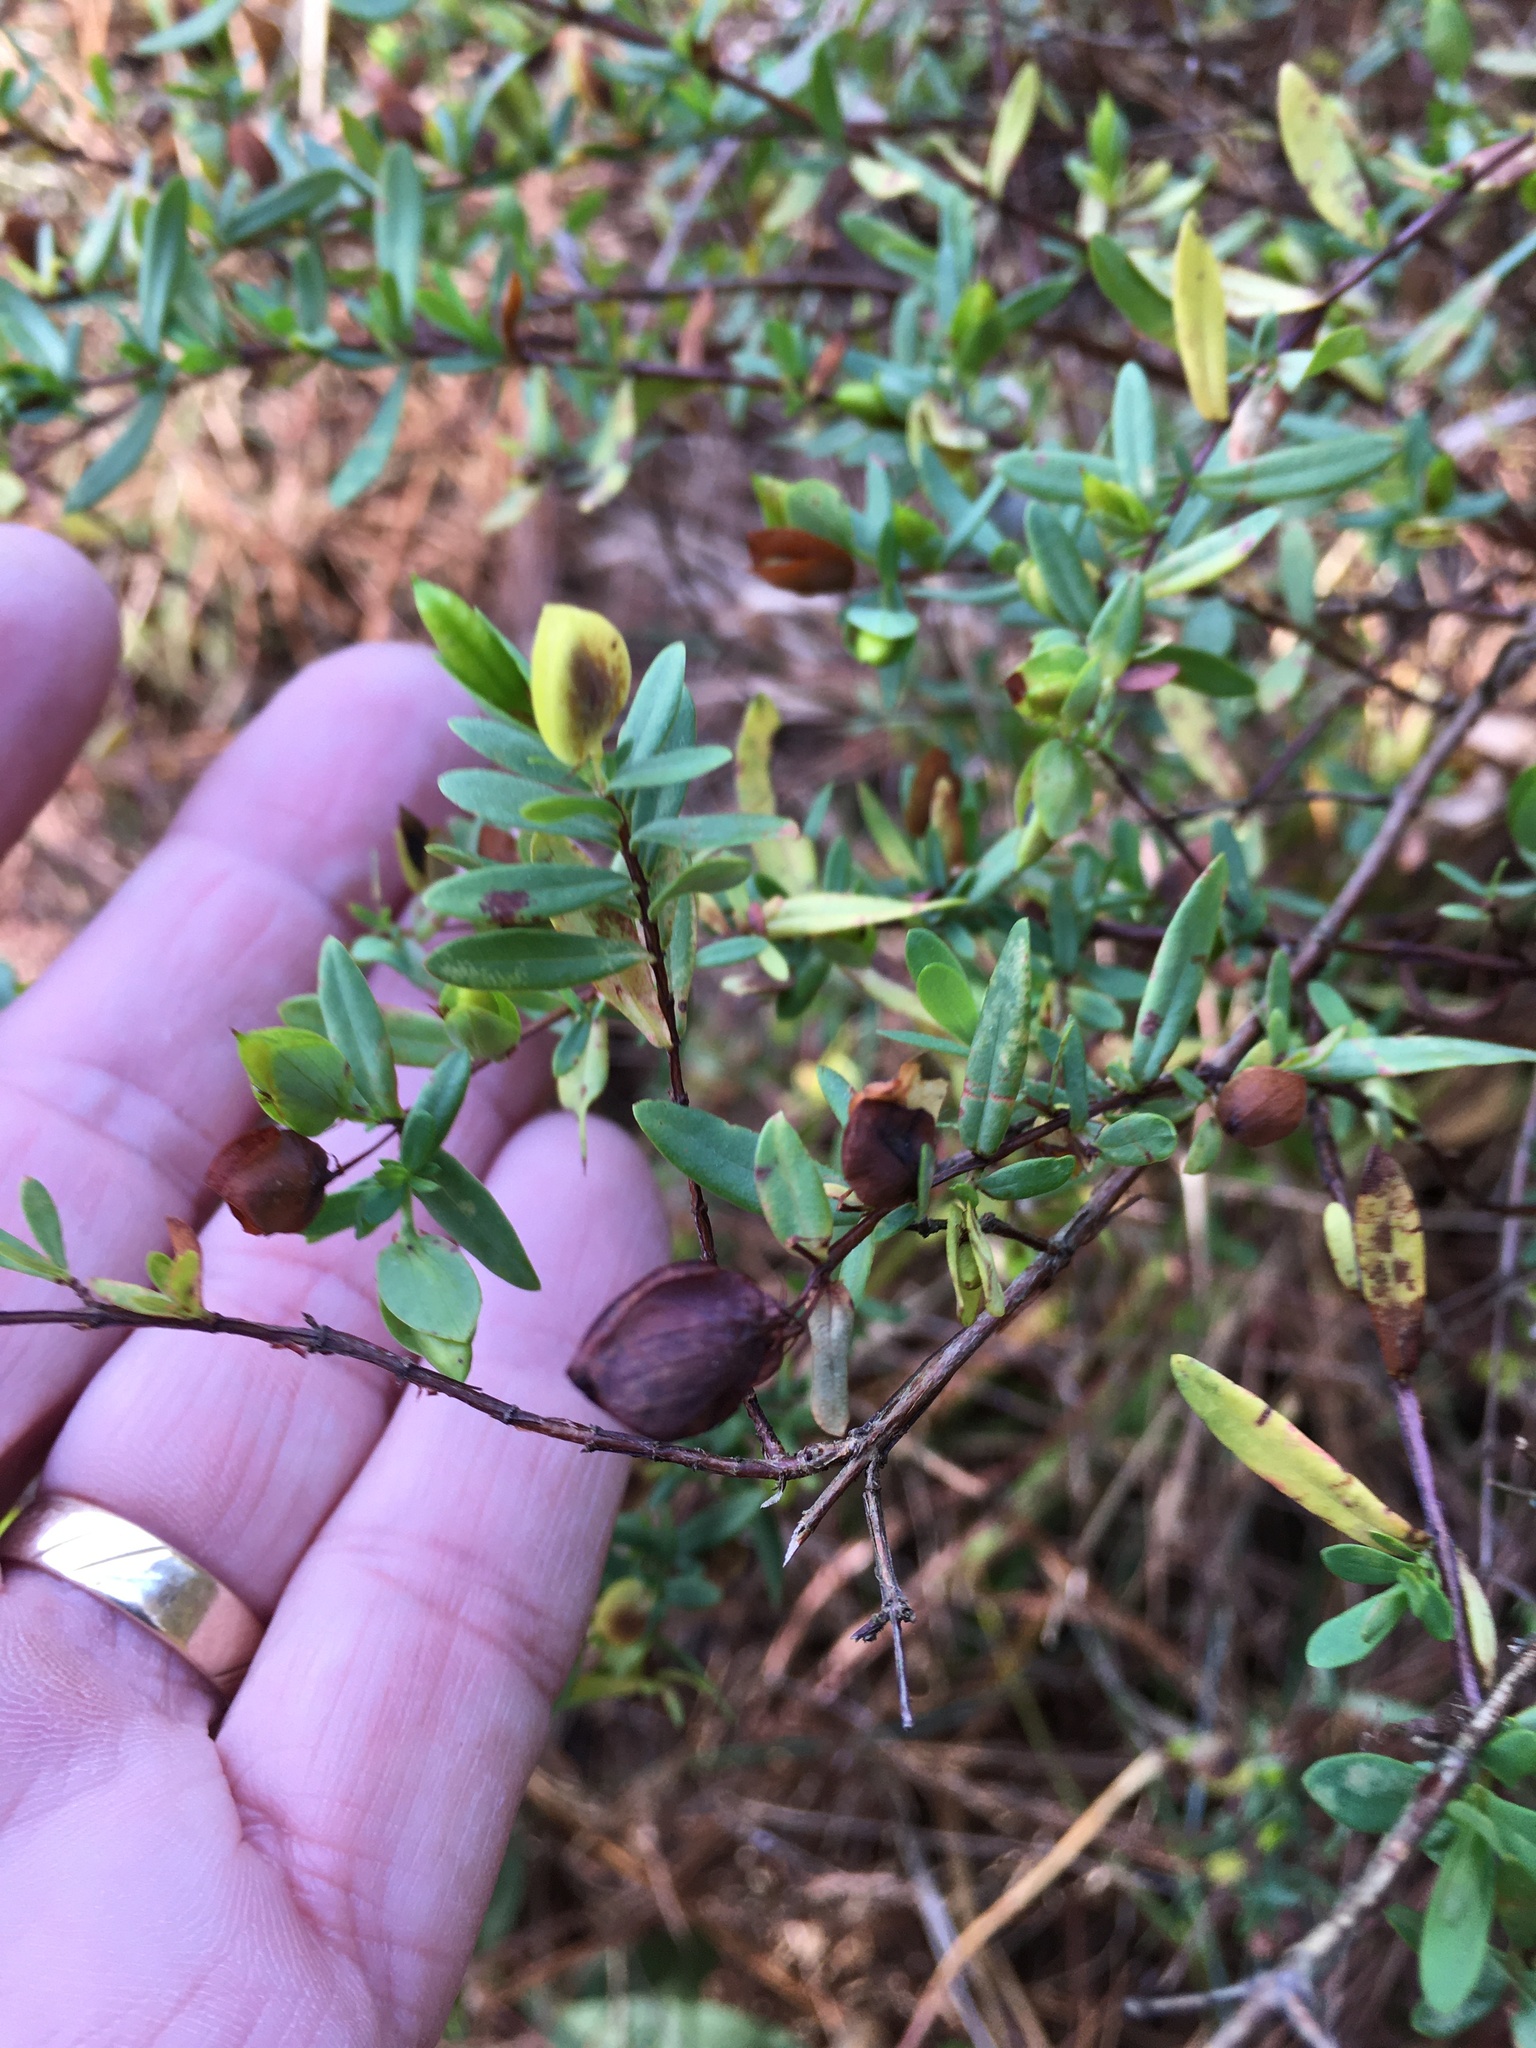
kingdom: Plantae
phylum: Tracheophyta
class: Magnoliopsida
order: Malpighiales
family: Hypericaceae
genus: Hypericum
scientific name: Hypericum hypericoides
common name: St. andrew's cross
